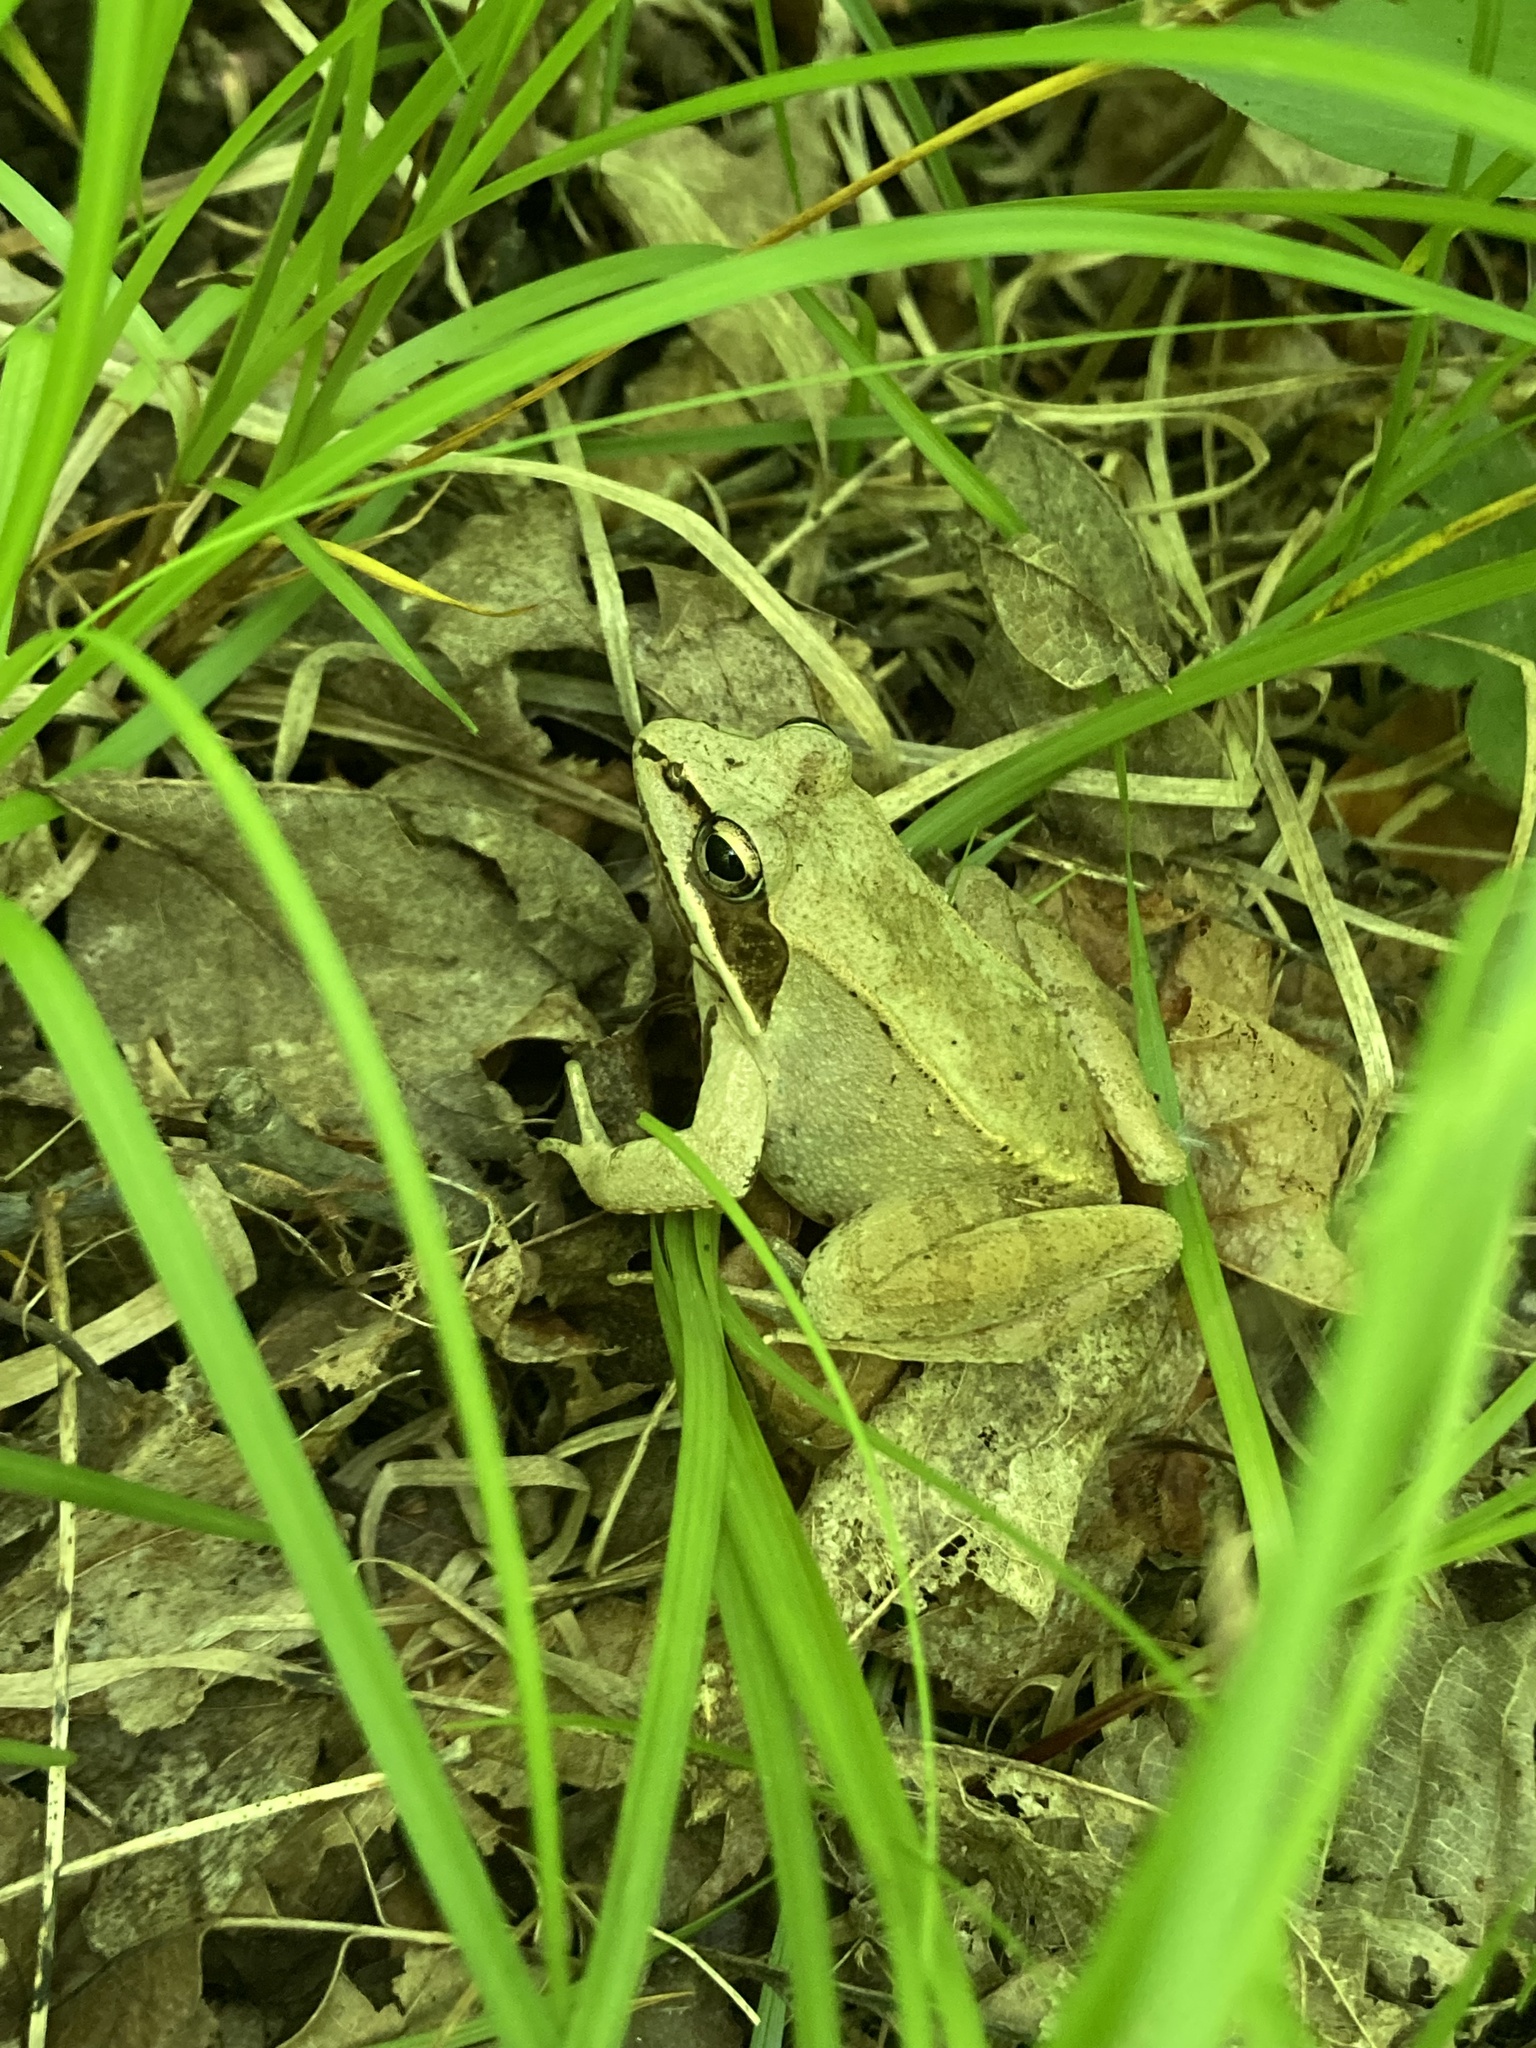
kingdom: Animalia
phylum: Chordata
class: Amphibia
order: Anura
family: Ranidae
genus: Lithobates
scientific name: Lithobates sylvaticus
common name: Wood frog
